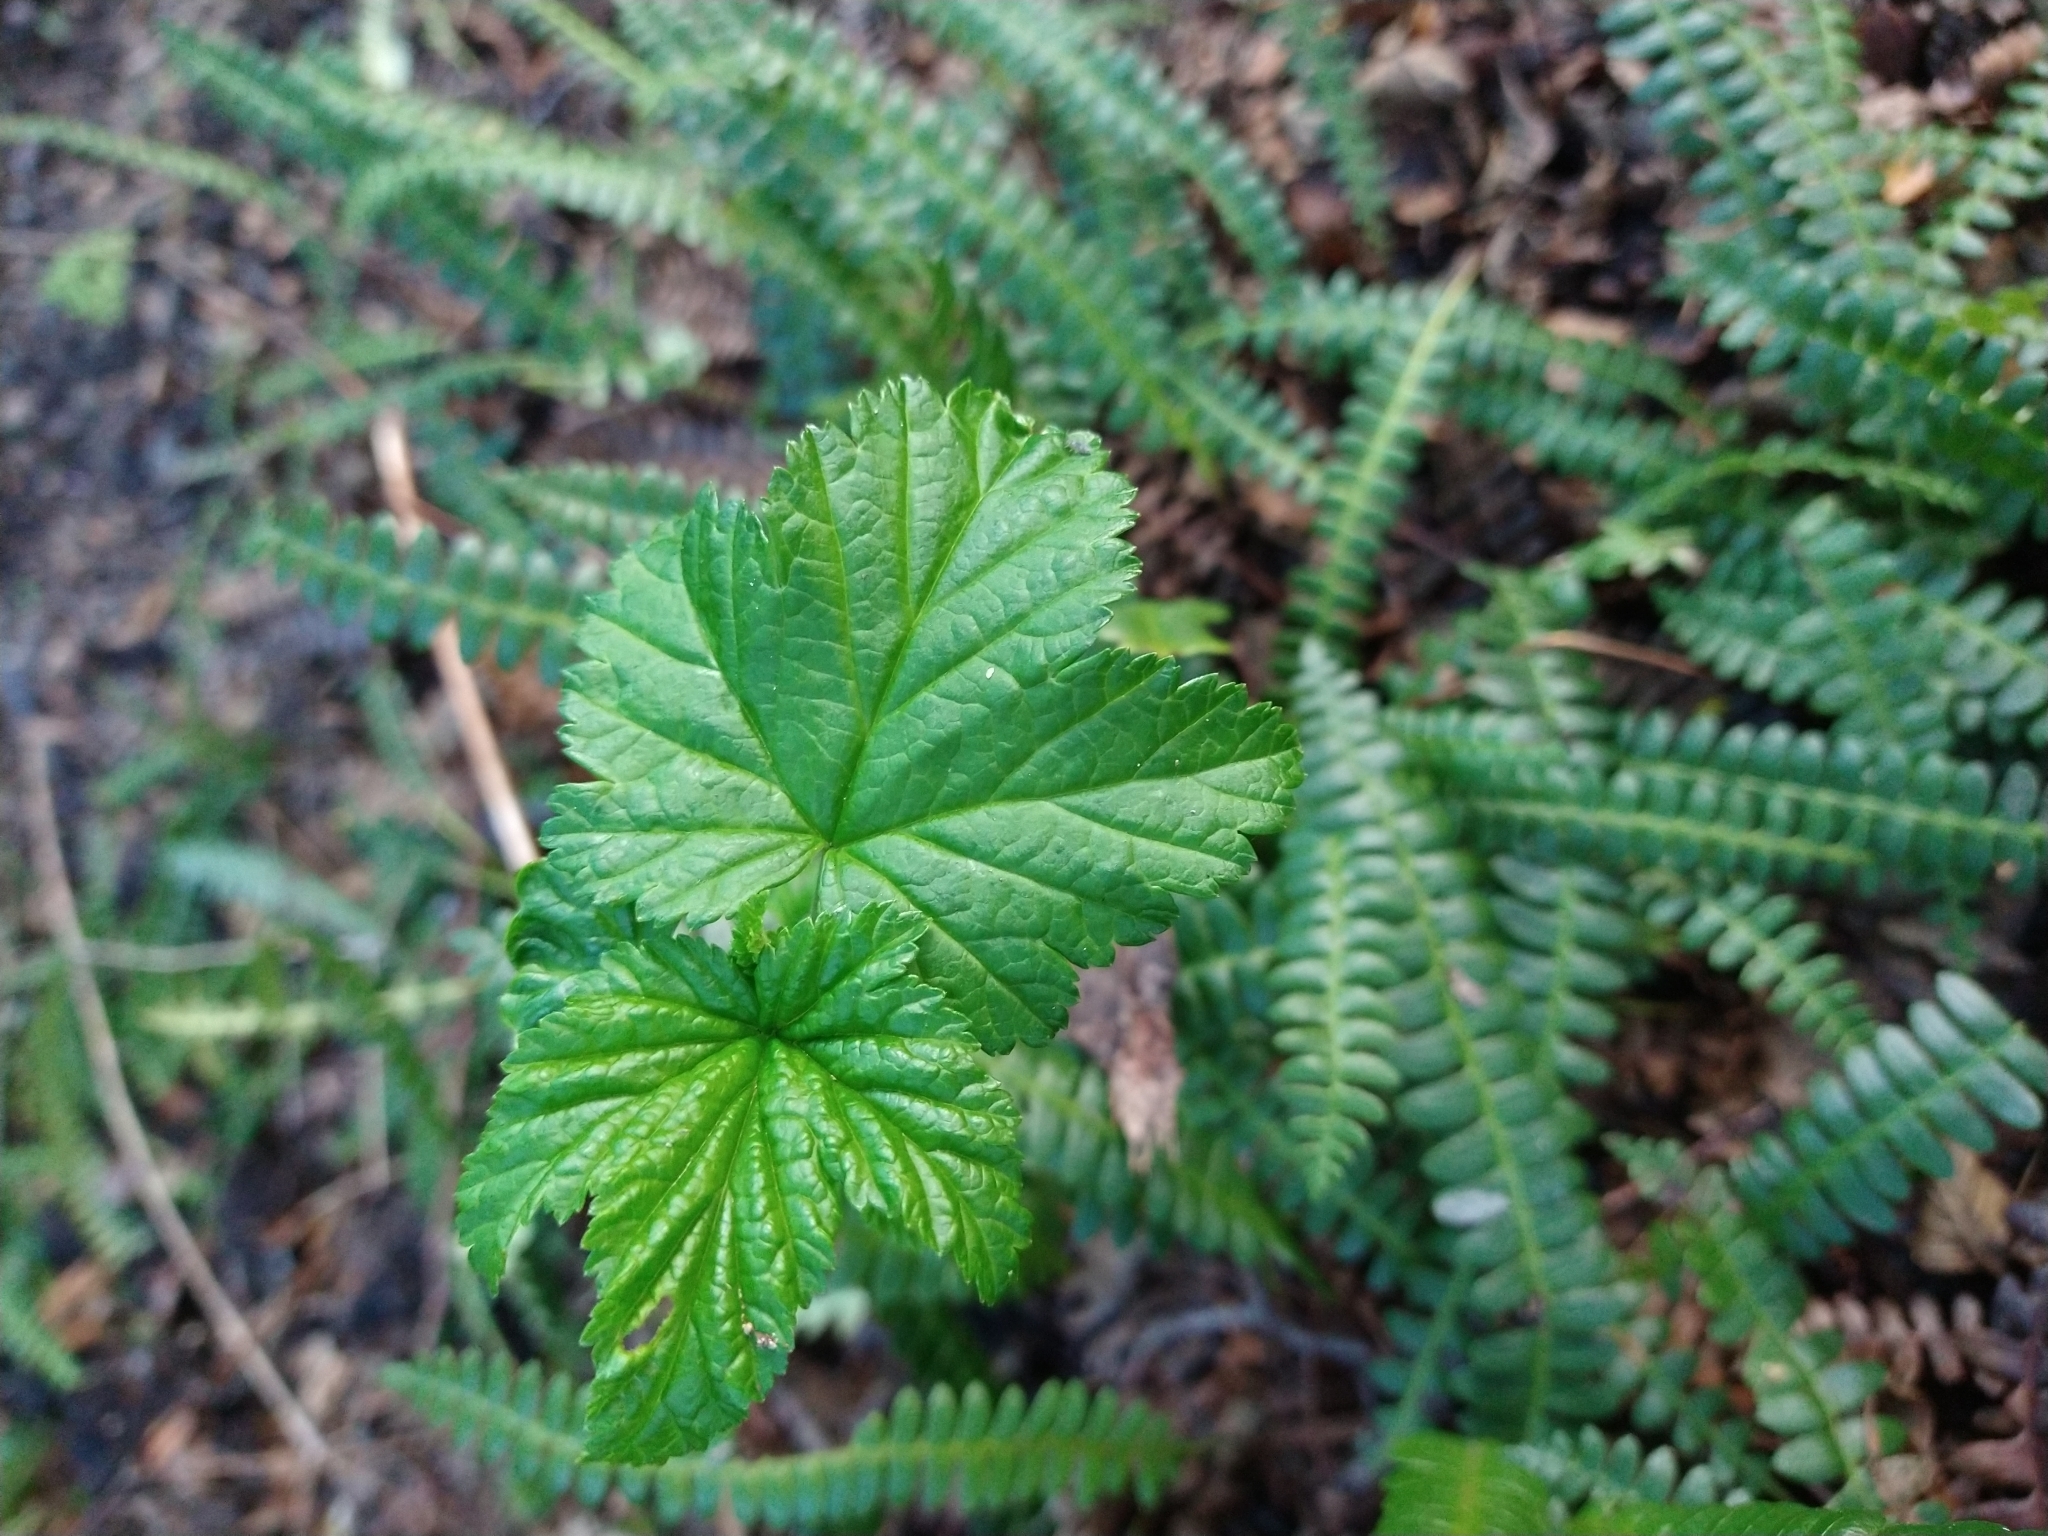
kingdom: Plantae
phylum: Tracheophyta
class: Magnoliopsida
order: Saxifragales
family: Grossulariaceae
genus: Ribes
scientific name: Ribes magellanicum
